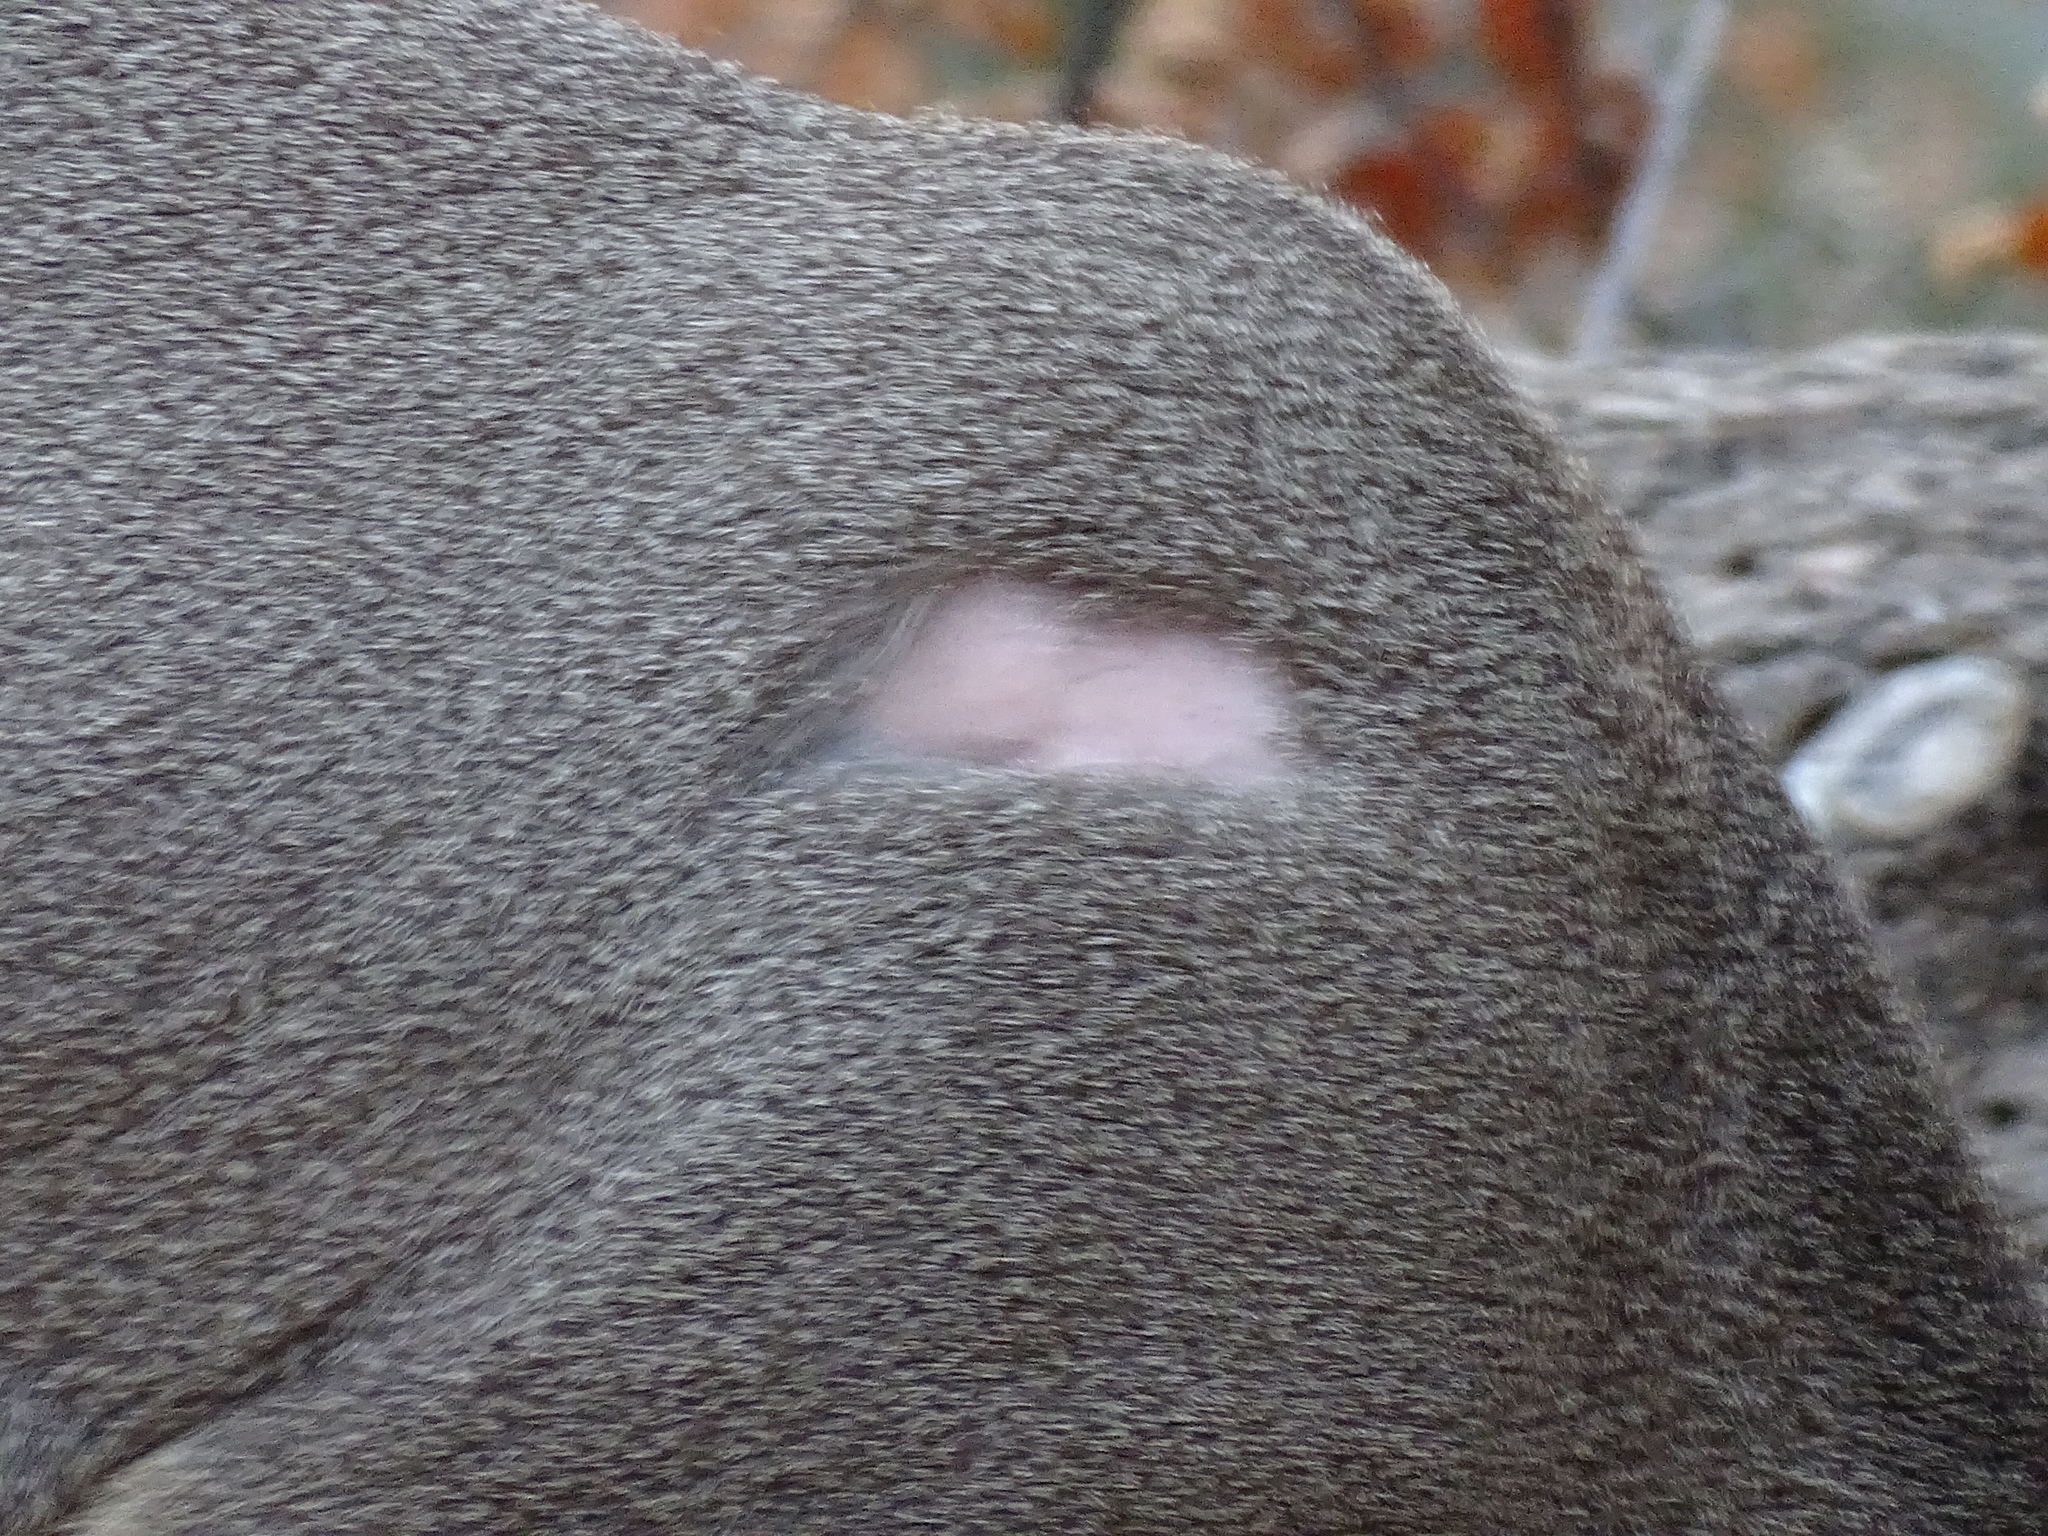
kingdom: Animalia
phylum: Chordata
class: Mammalia
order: Artiodactyla
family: Cervidae
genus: Odocoileus
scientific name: Odocoileus hemionus
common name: Mule deer
